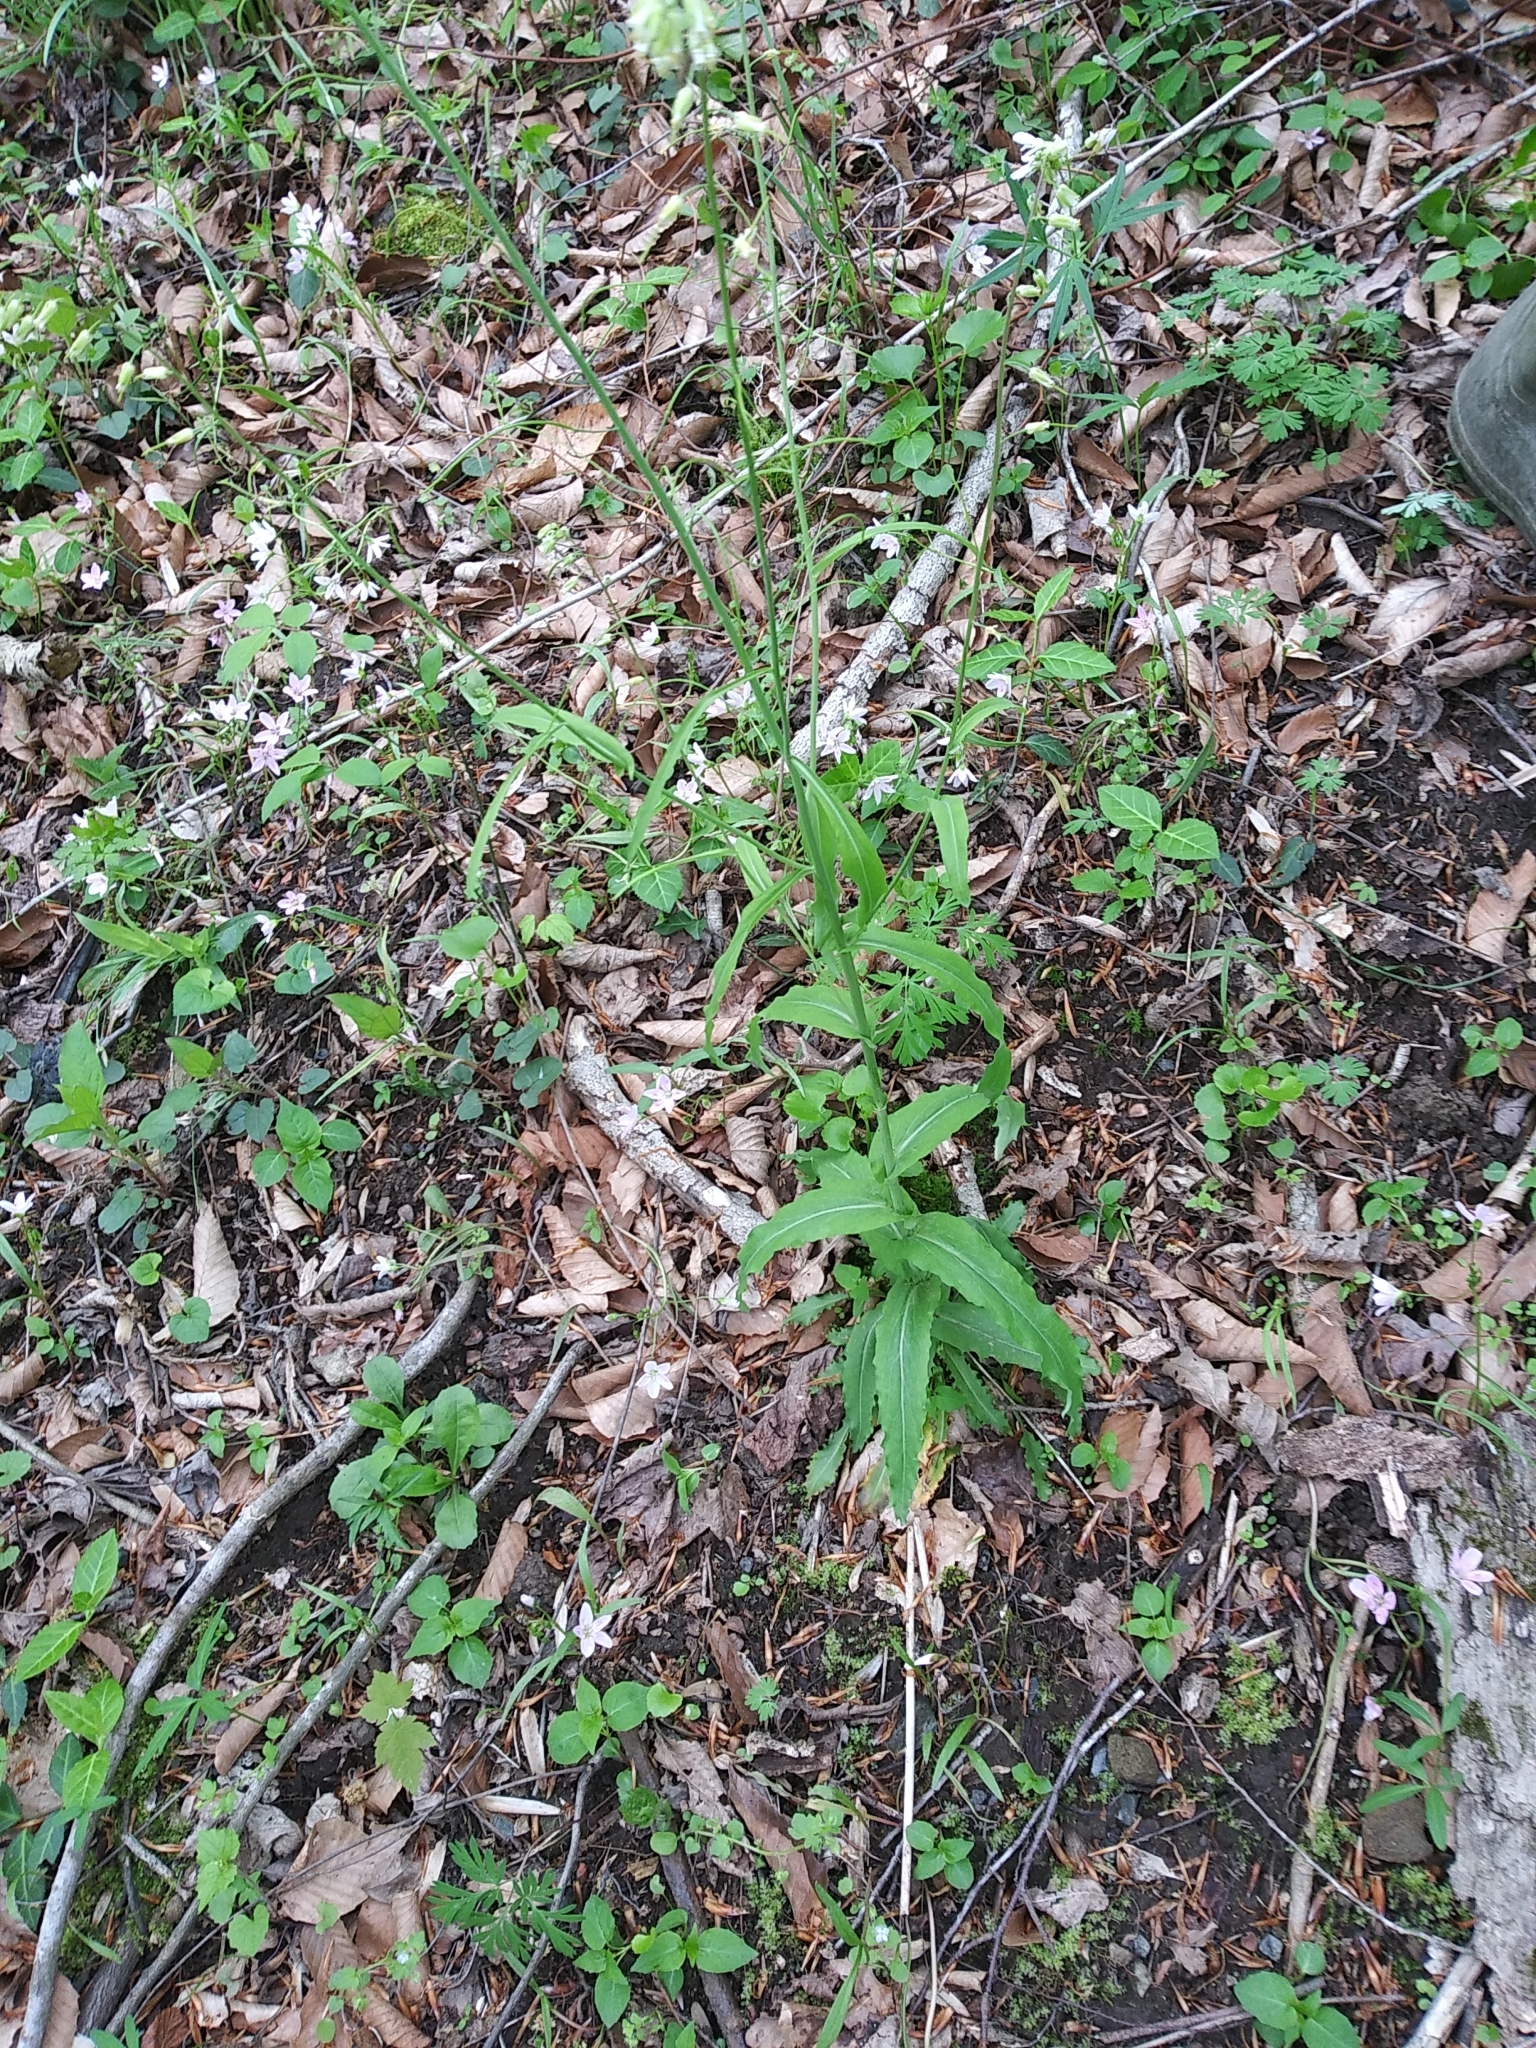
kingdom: Plantae
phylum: Tracheophyta
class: Magnoliopsida
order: Brassicales
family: Brassicaceae
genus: Borodinia
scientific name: Borodinia laevigata
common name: Smooth rockcress
